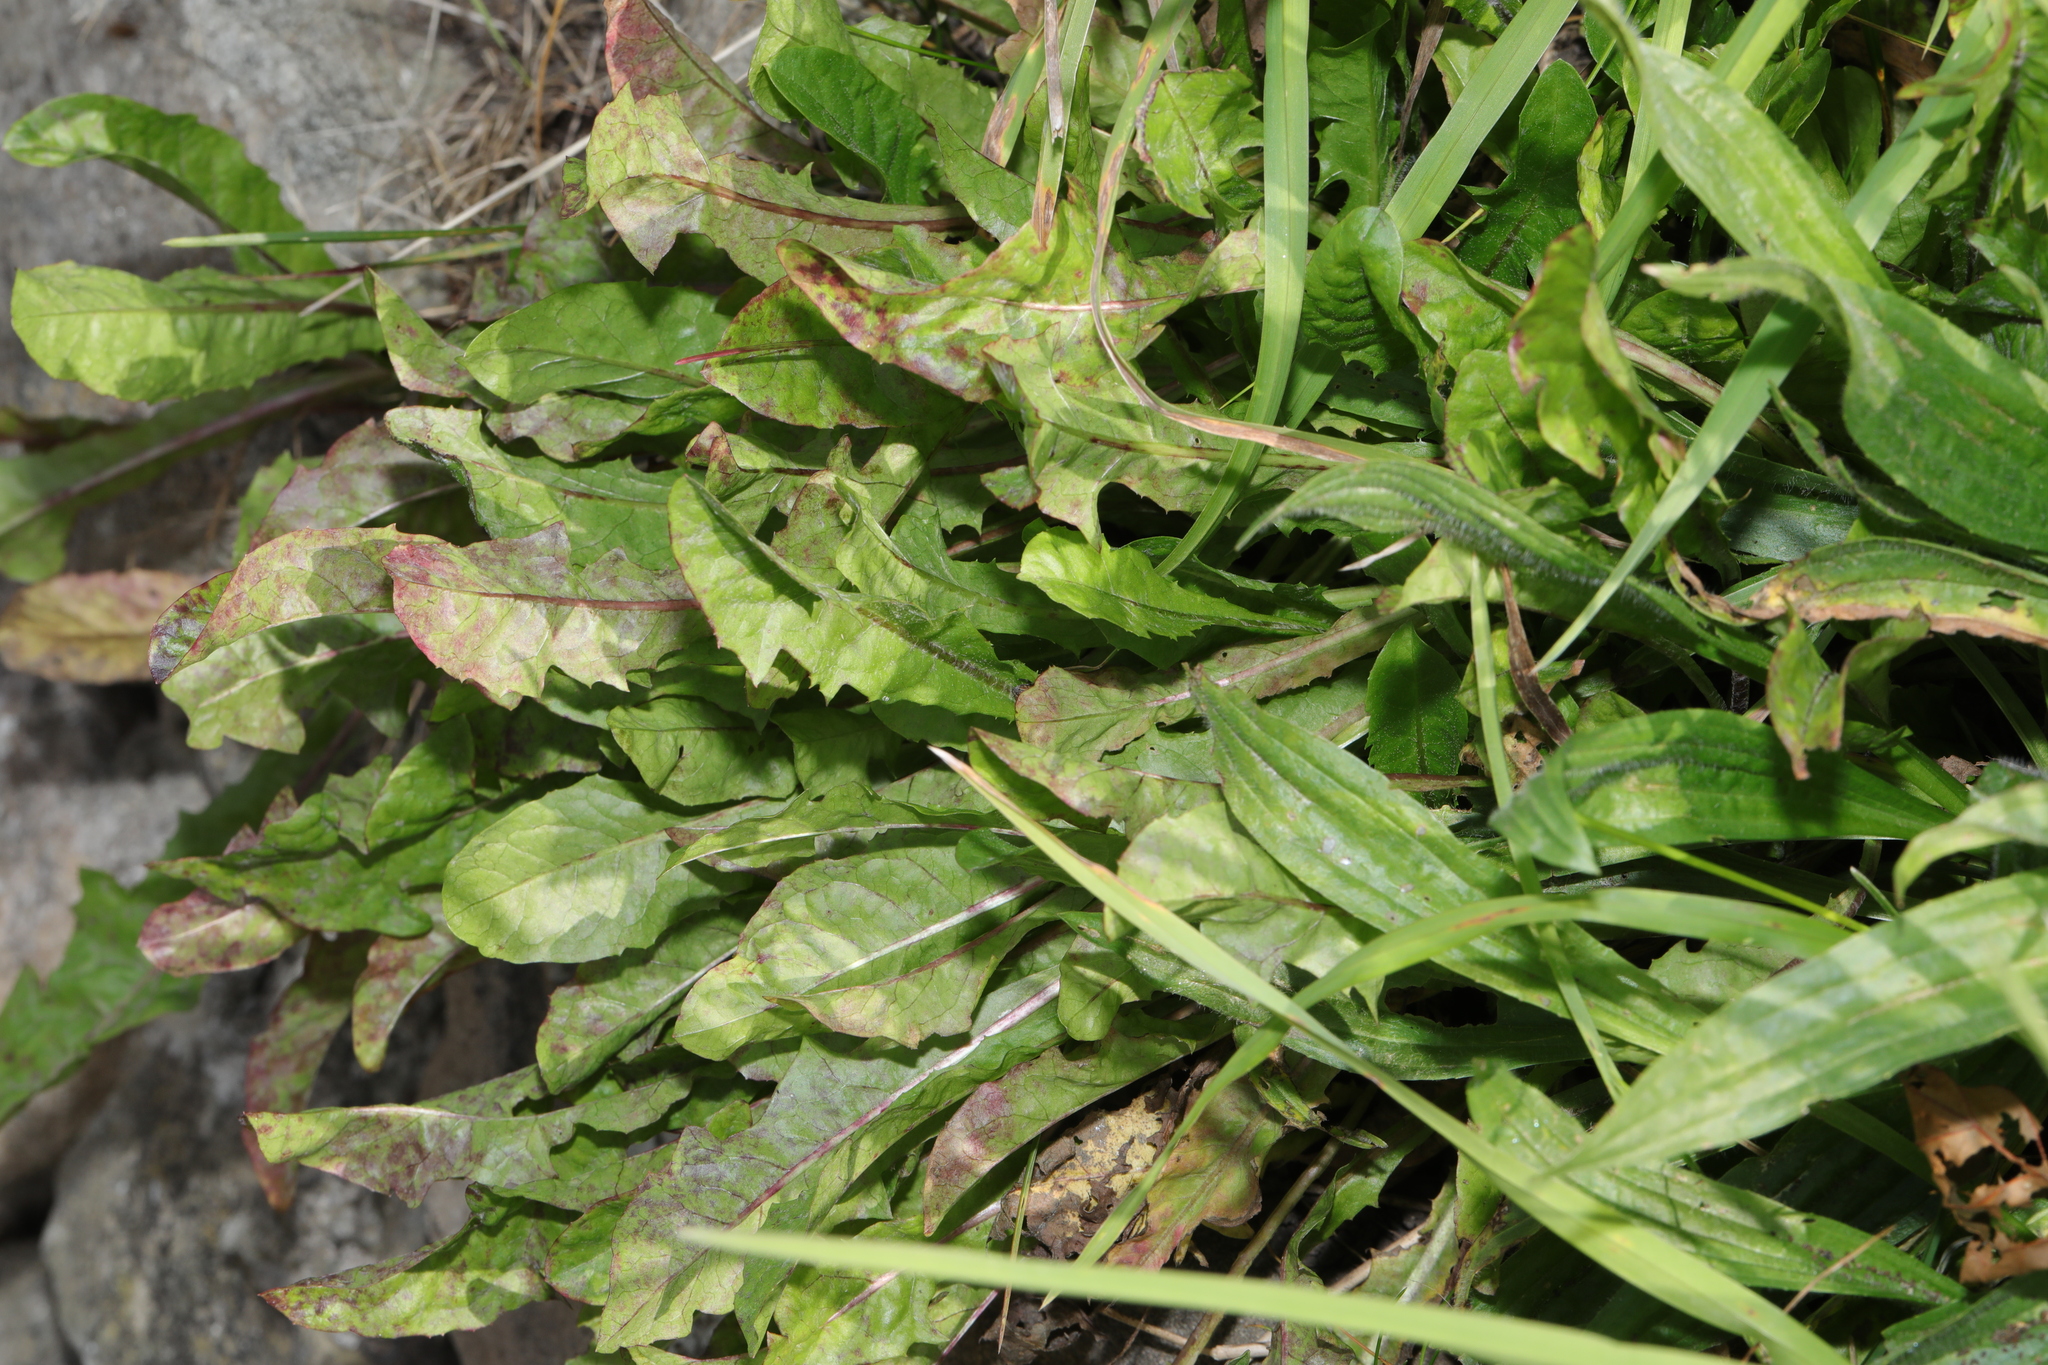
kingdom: Plantae
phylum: Tracheophyta
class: Magnoliopsida
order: Asterales
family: Asteraceae
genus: Taraxacum
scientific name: Taraxacum officinale
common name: Common dandelion
